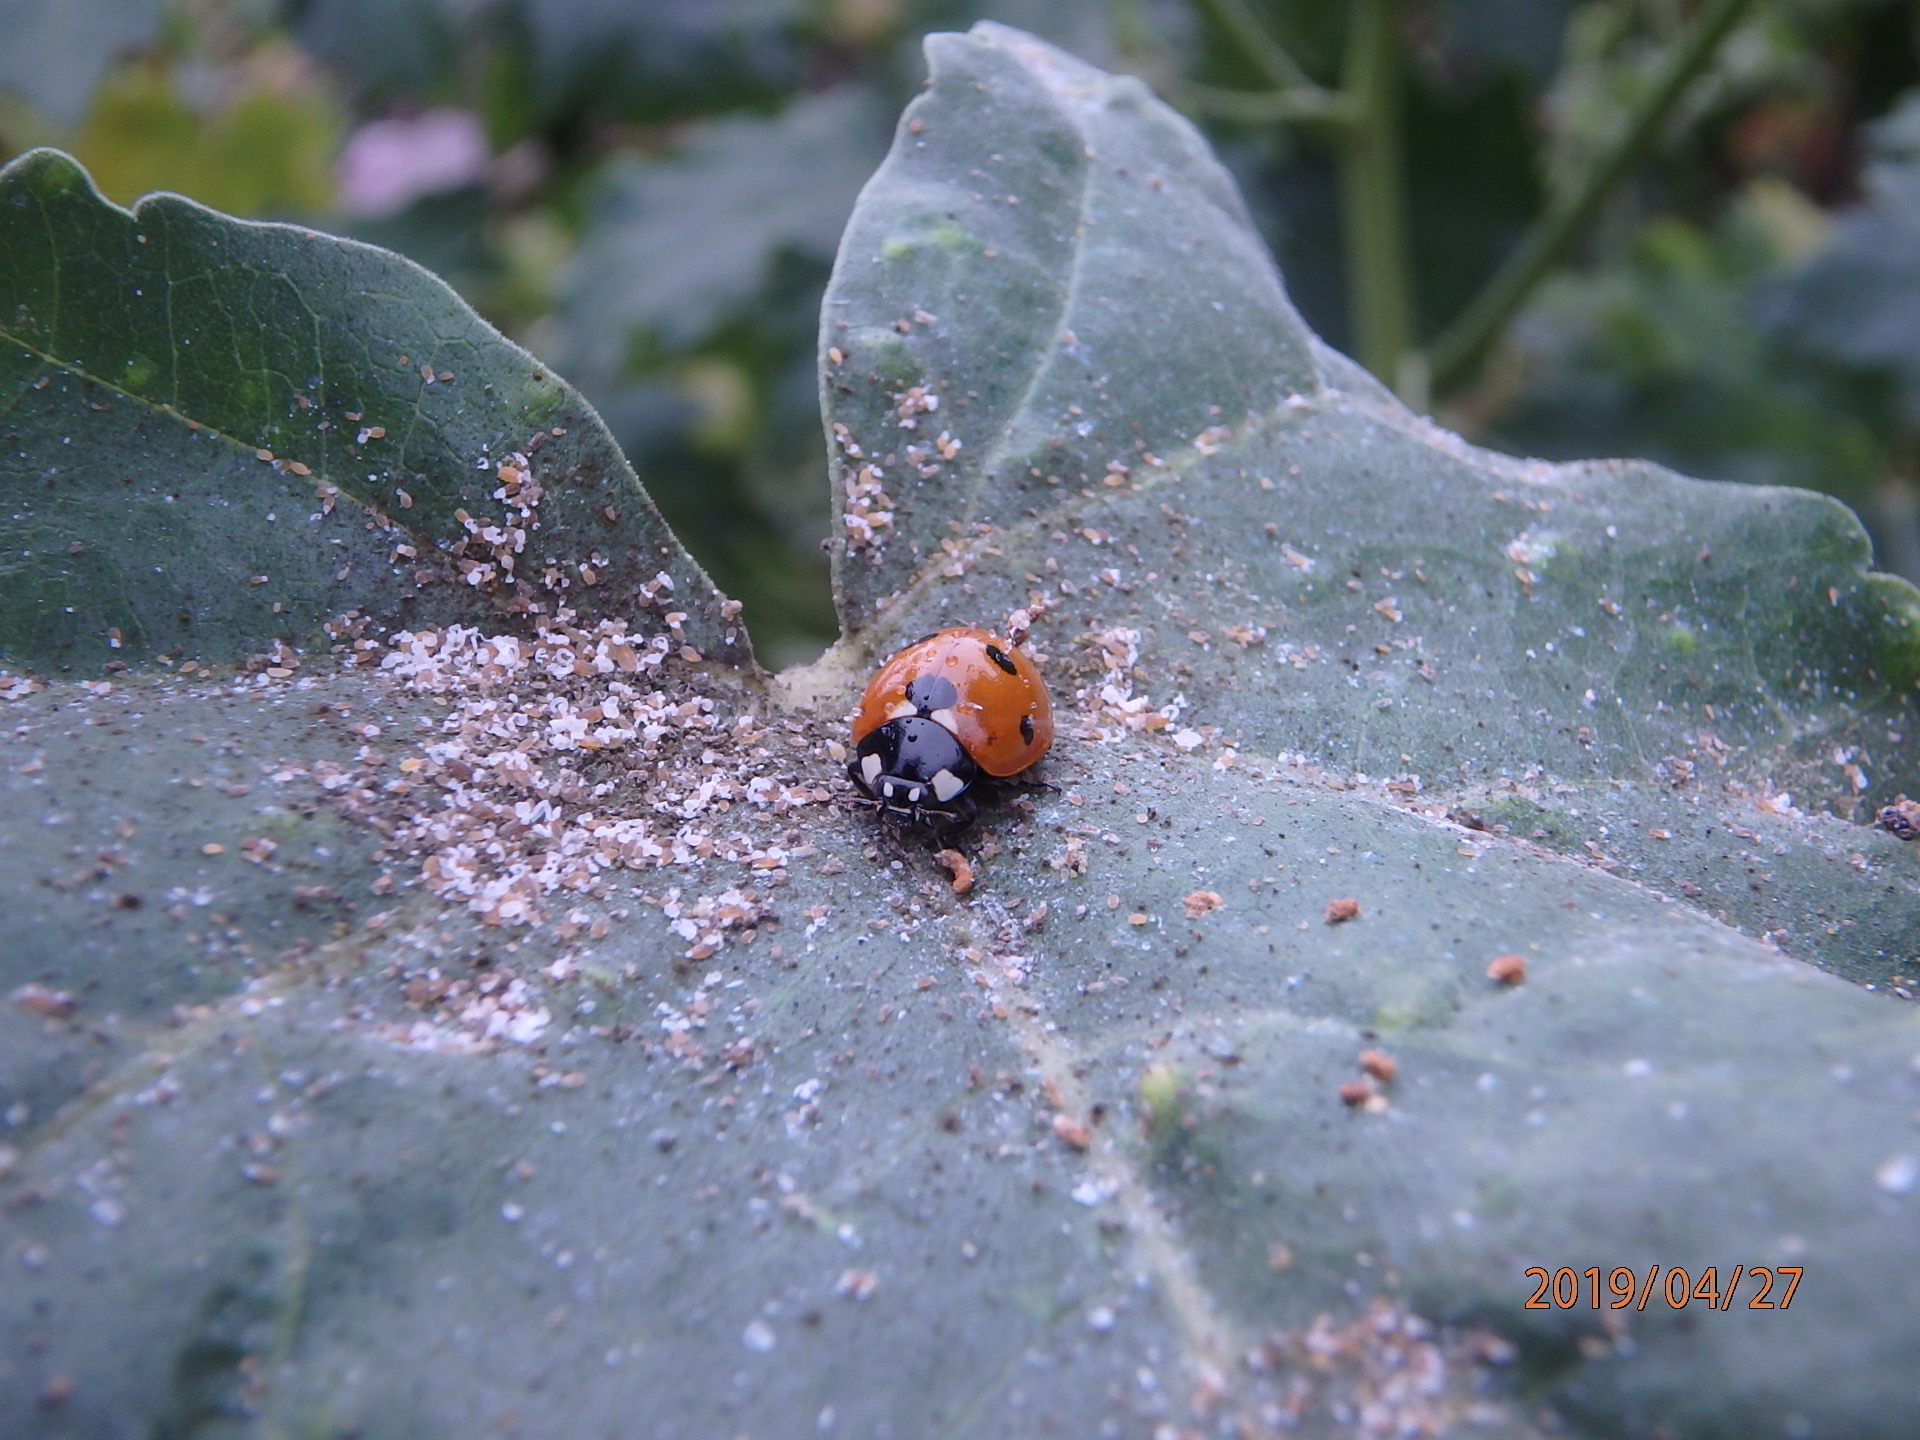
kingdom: Animalia
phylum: Arthropoda
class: Insecta
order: Coleoptera
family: Coccinellidae
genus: Coccinella
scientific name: Coccinella septempunctata
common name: Sevenspotted lady beetle
